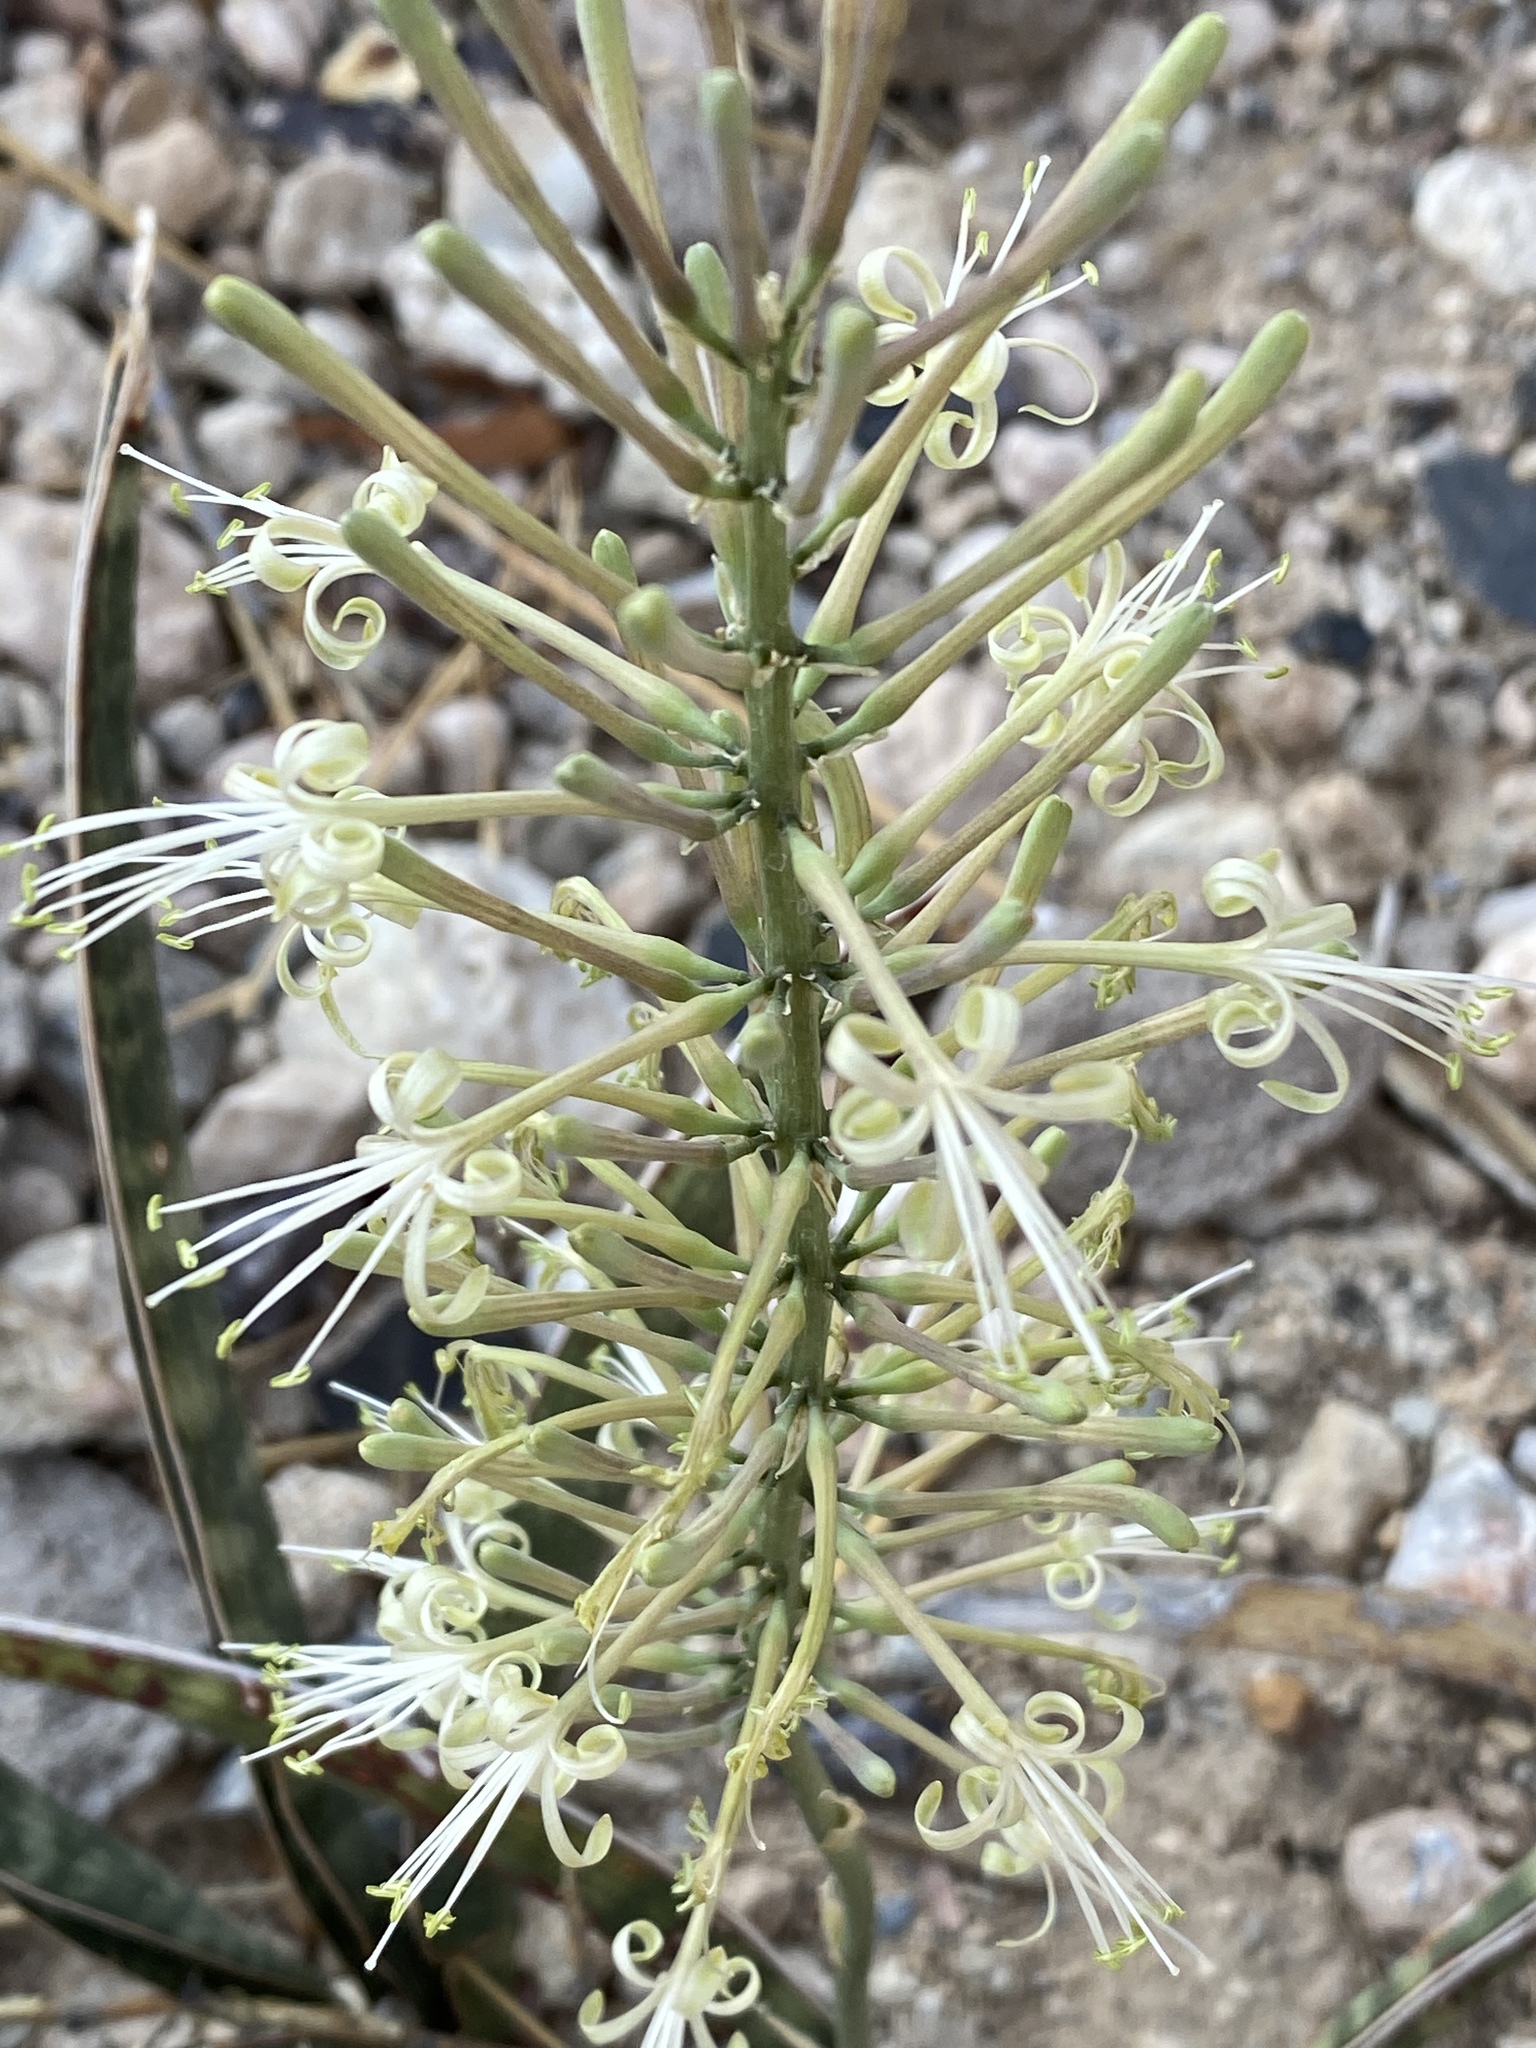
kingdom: Plantae
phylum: Tracheophyta
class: Liliopsida
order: Asparagales
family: Asparagaceae
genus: Dracaena
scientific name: Dracaena aethiopica
